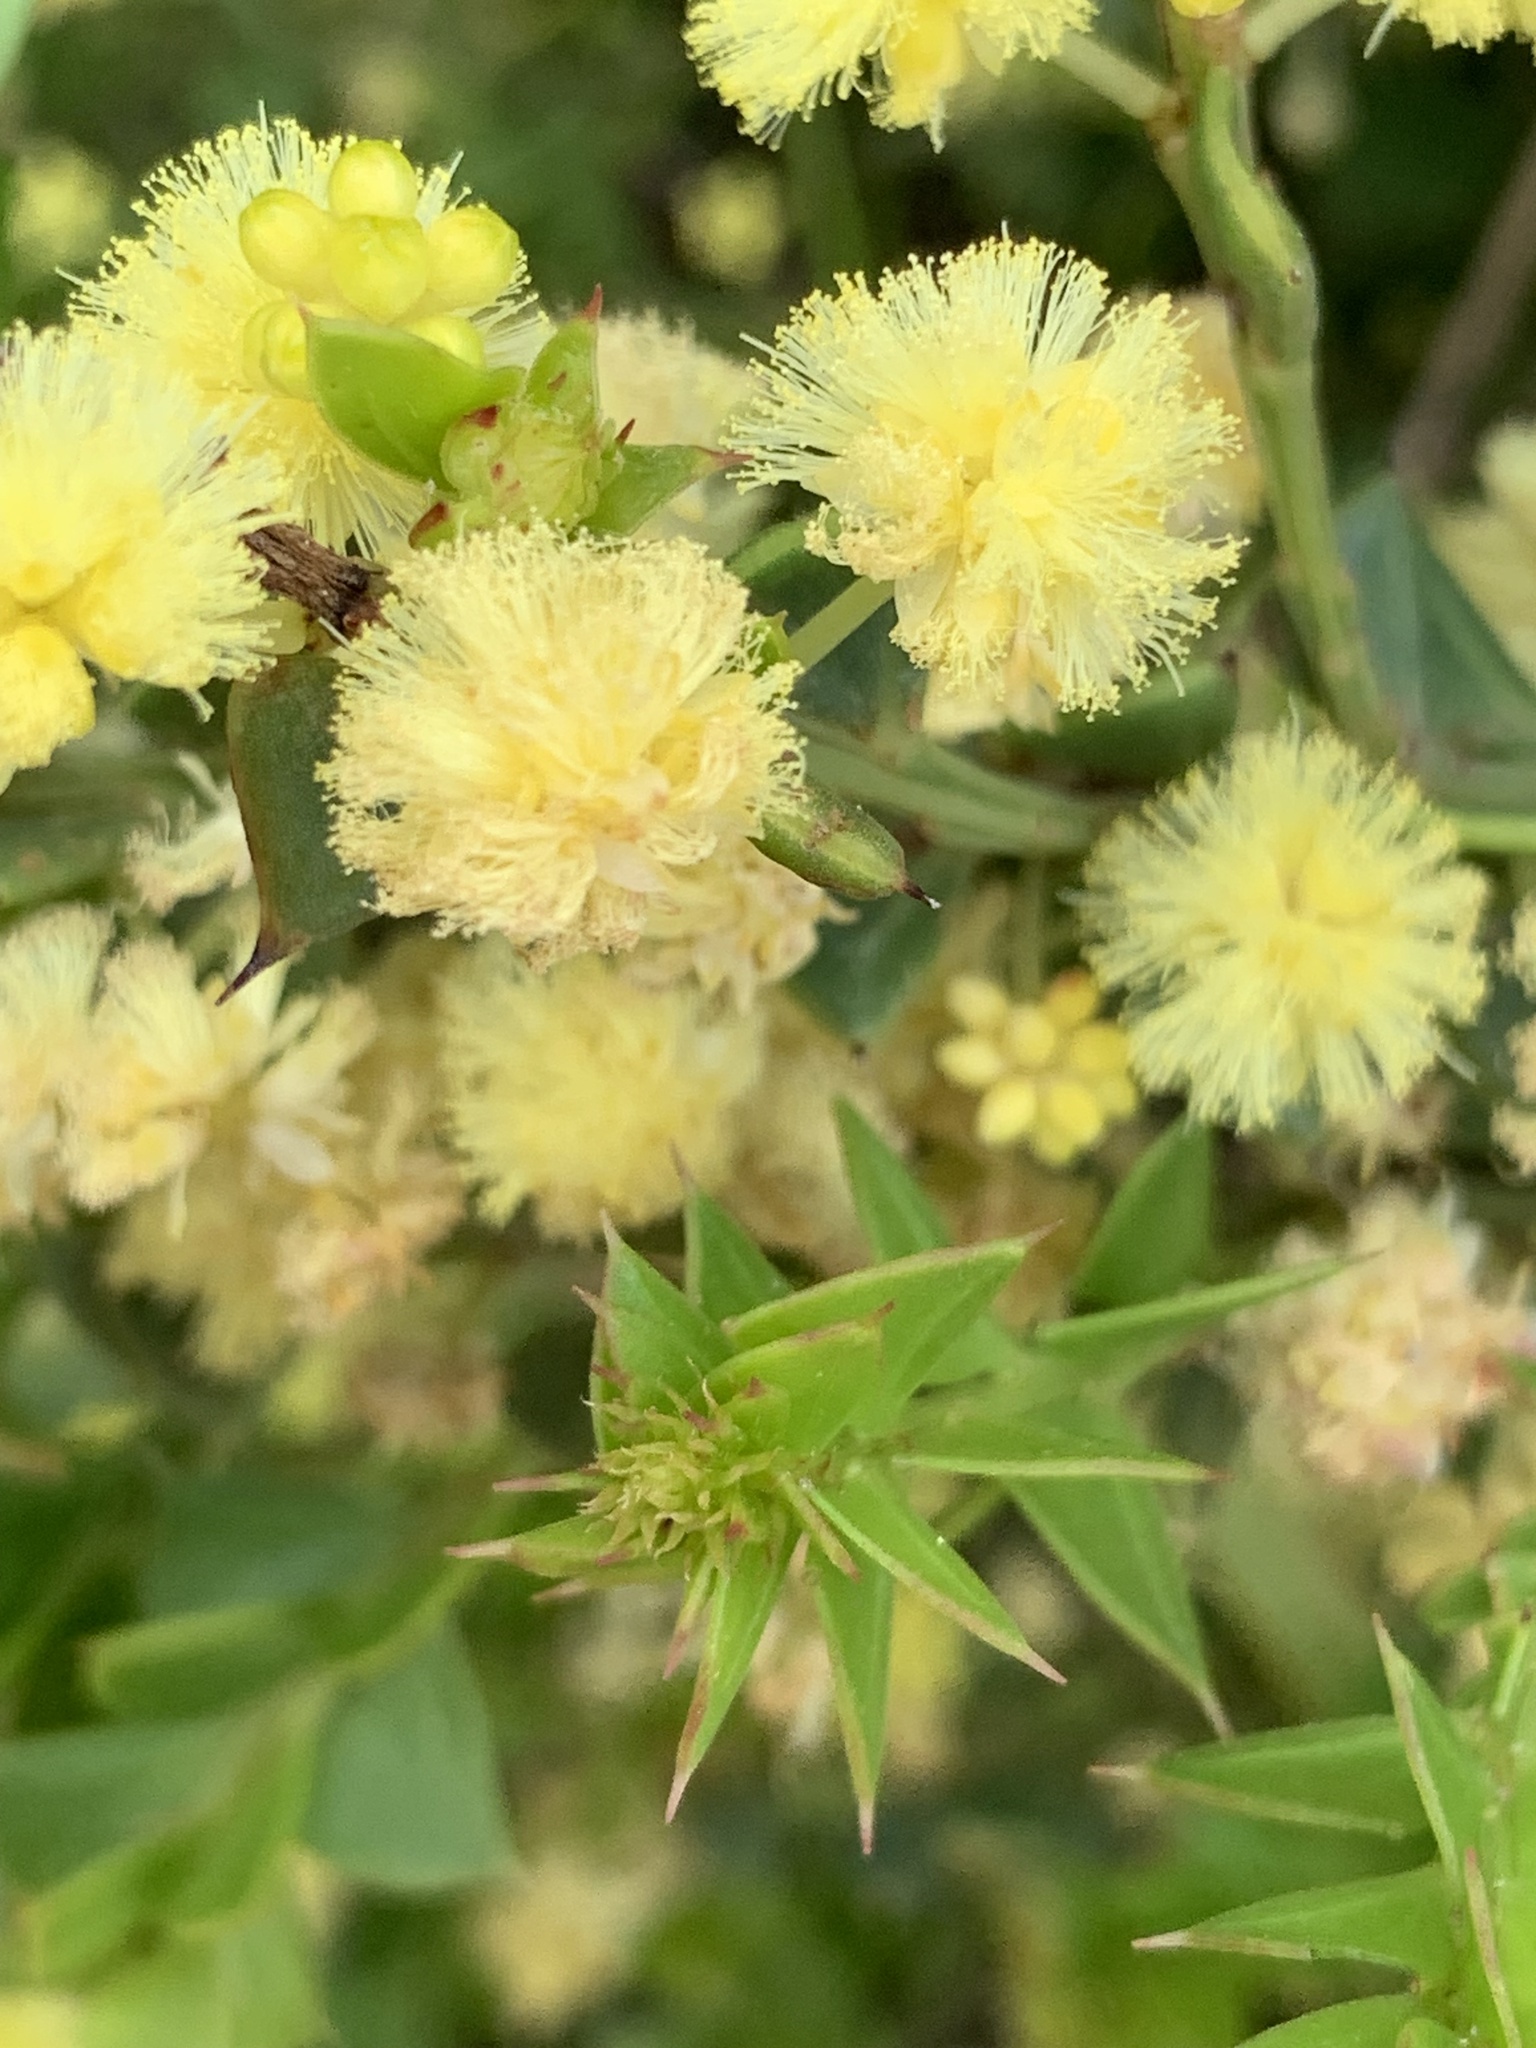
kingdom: Plantae
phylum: Tracheophyta
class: Magnoliopsida
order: Fabales
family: Fabaceae
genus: Acacia
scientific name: Acacia trapezoidea
